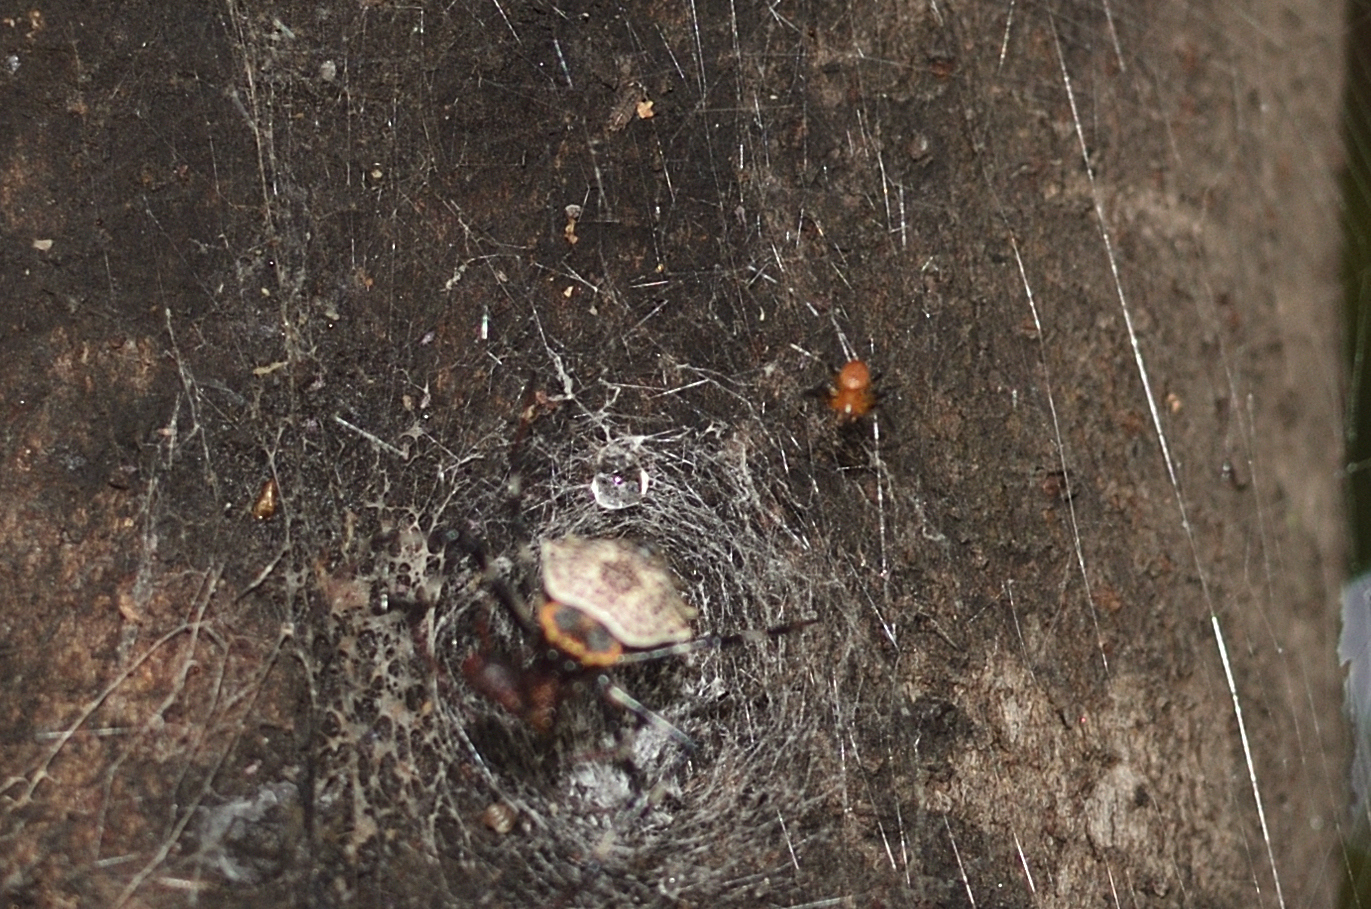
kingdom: Animalia
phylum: Arthropoda
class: Arachnida
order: Araneae
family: Araneidae
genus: Herennia
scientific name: Herennia multipuncta
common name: Spotted coin spider
